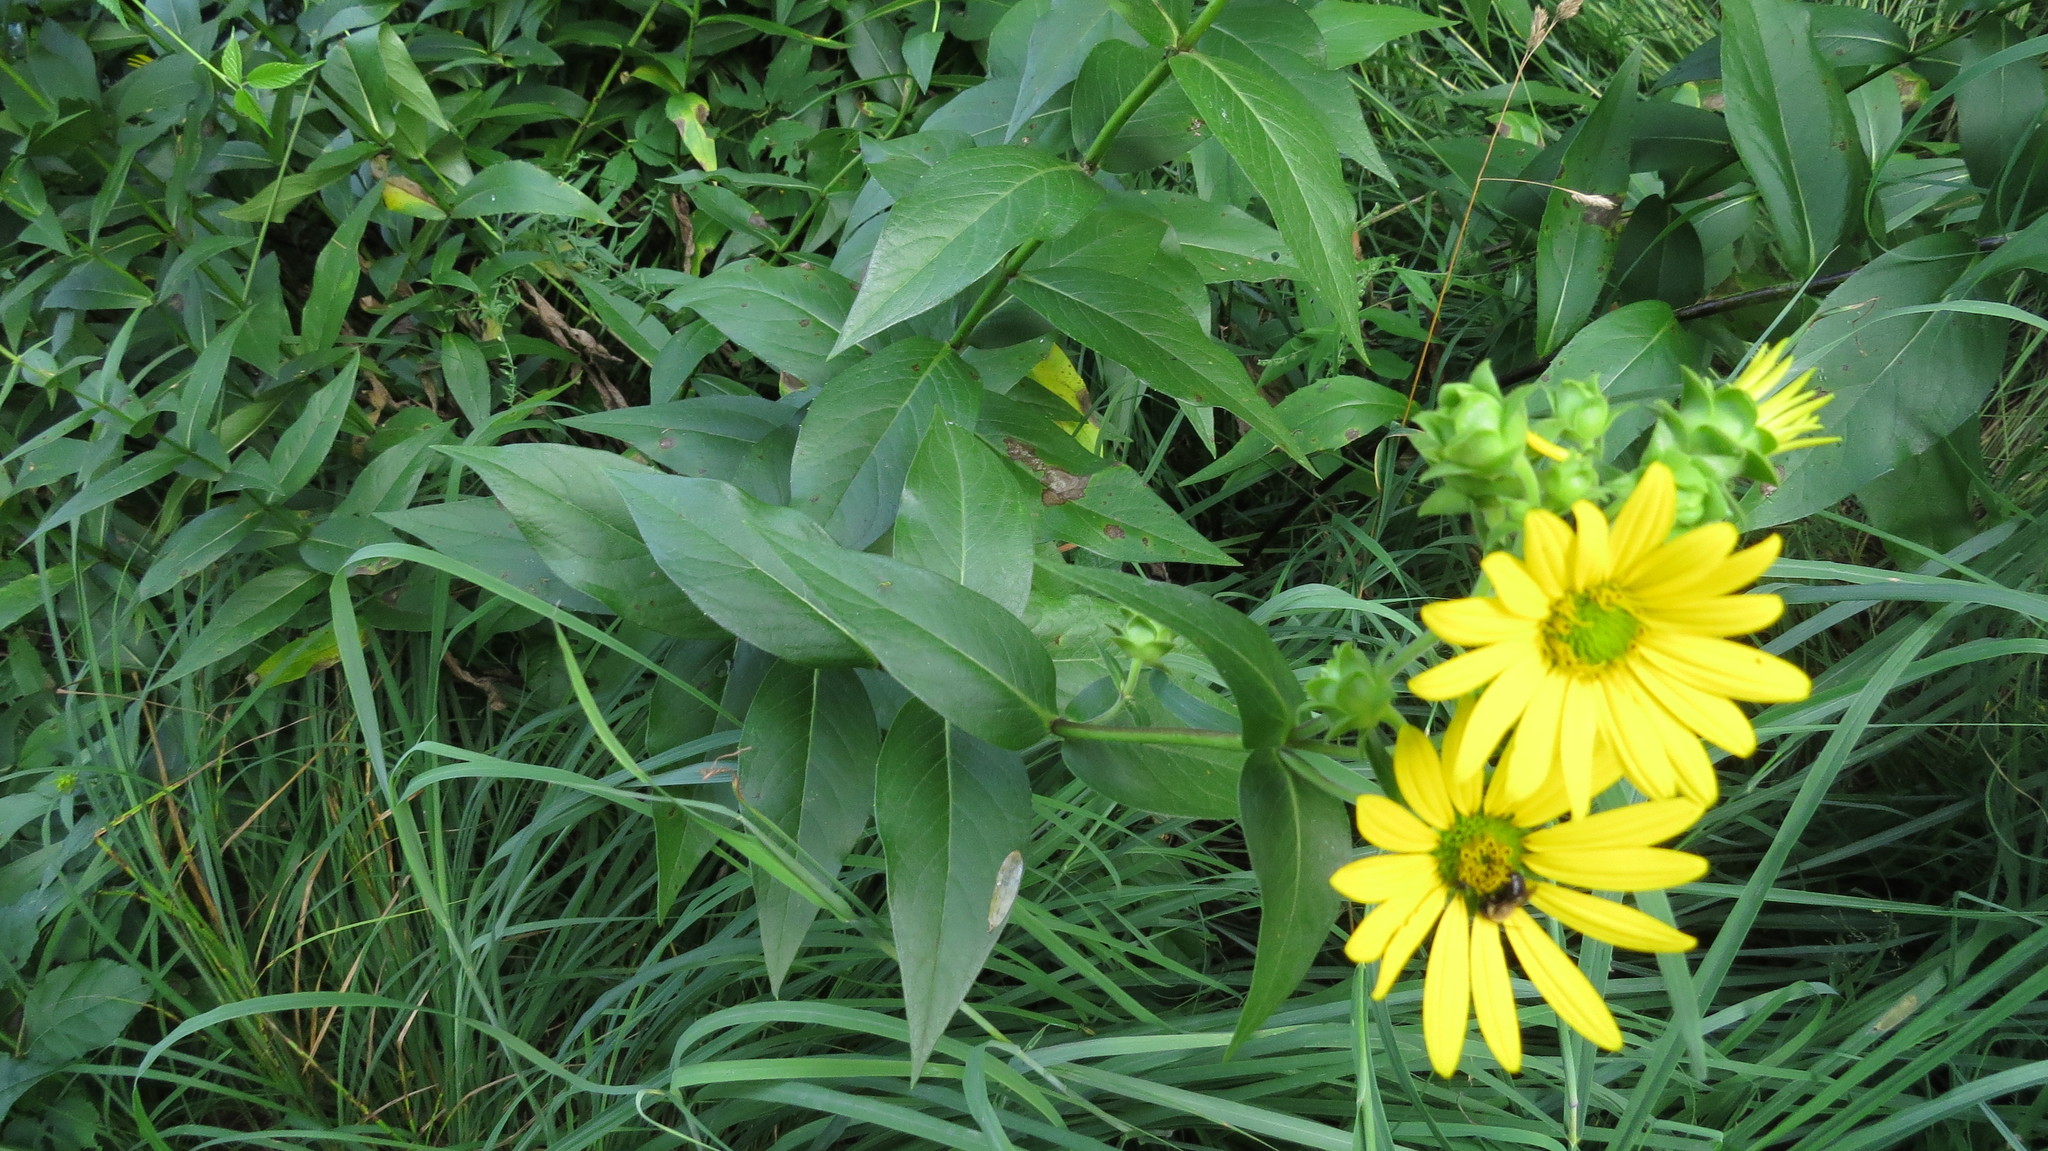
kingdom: Plantae
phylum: Tracheophyta
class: Magnoliopsida
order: Asterales
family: Asteraceae
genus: Silphium
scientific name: Silphium integrifolium
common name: Whole-leaf rosinweed
